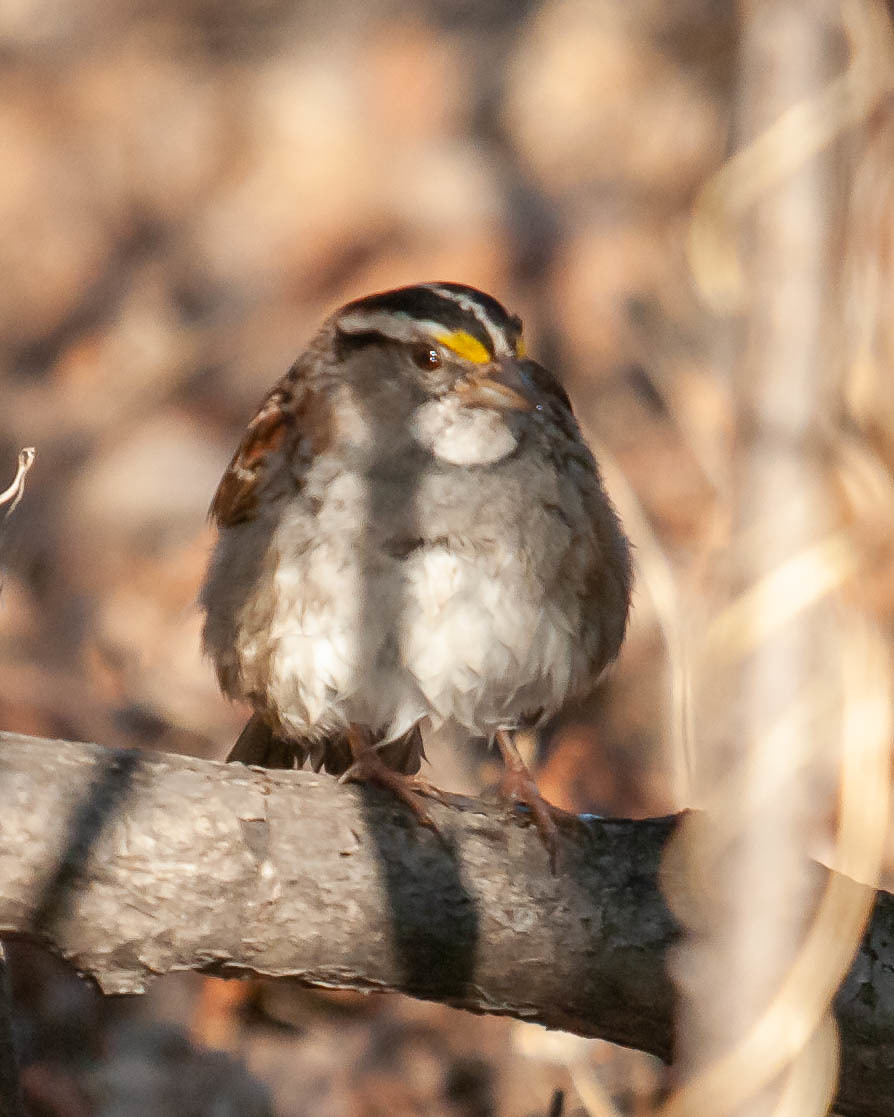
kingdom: Animalia
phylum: Chordata
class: Aves
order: Passeriformes
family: Passerellidae
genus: Zonotrichia
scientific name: Zonotrichia albicollis
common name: White-throated sparrow
